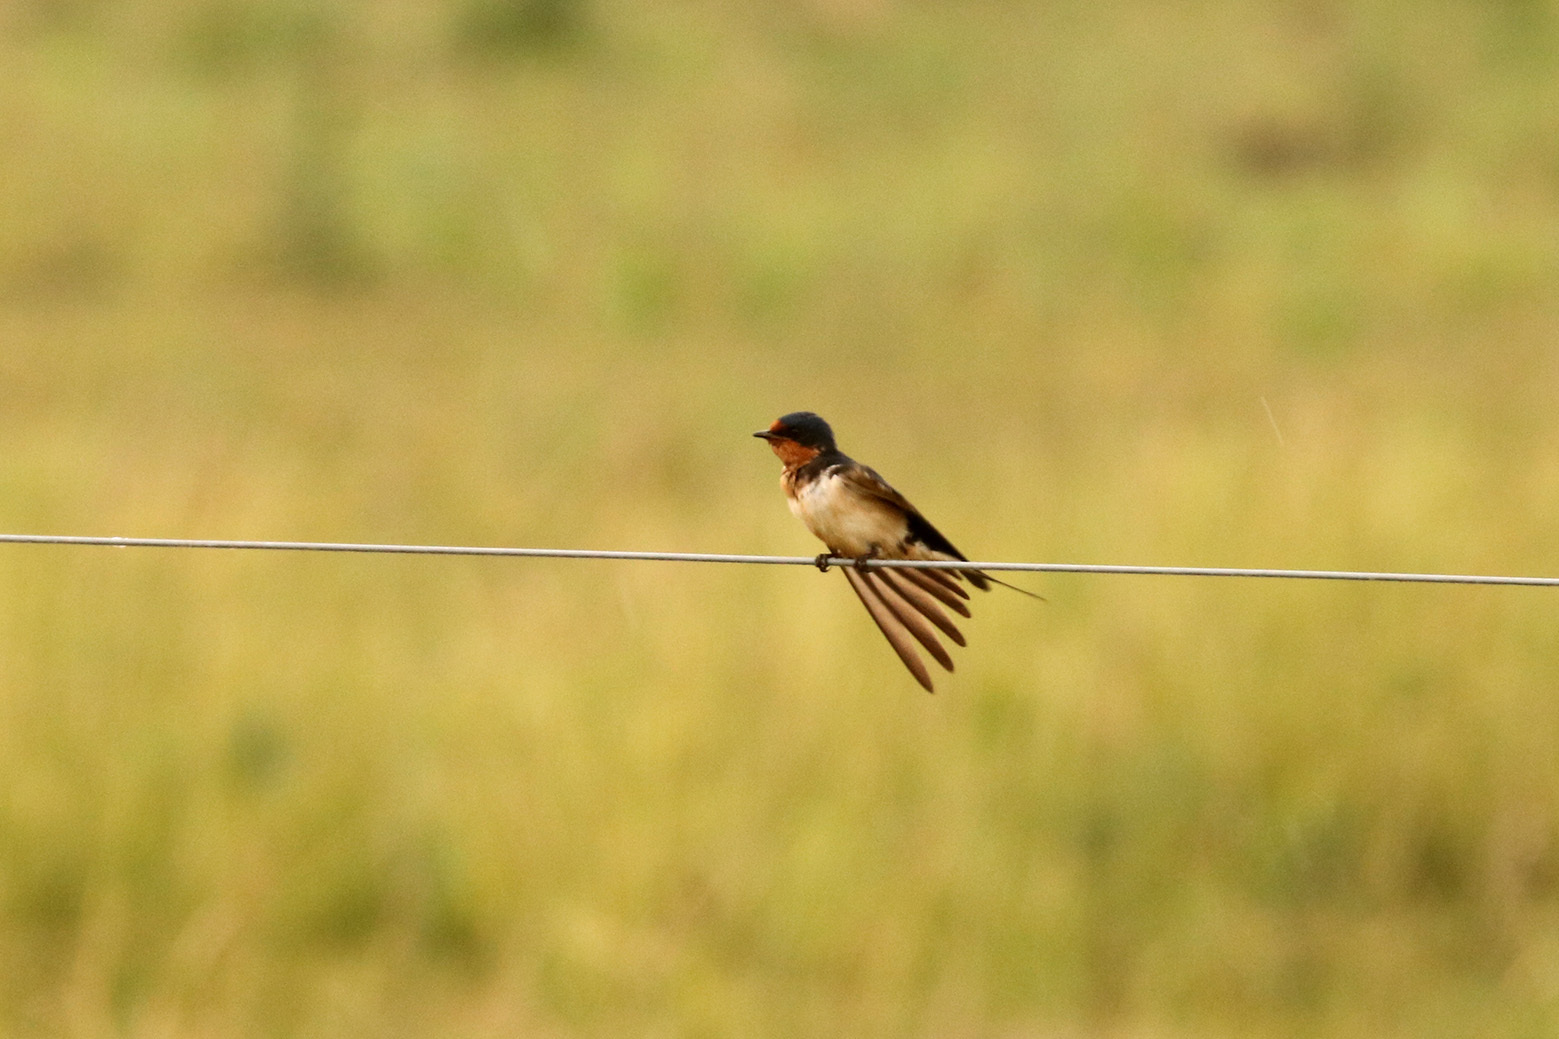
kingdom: Animalia
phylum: Chordata
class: Aves
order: Passeriformes
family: Hirundinidae
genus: Hirundo
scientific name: Hirundo rustica
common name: Barn swallow
